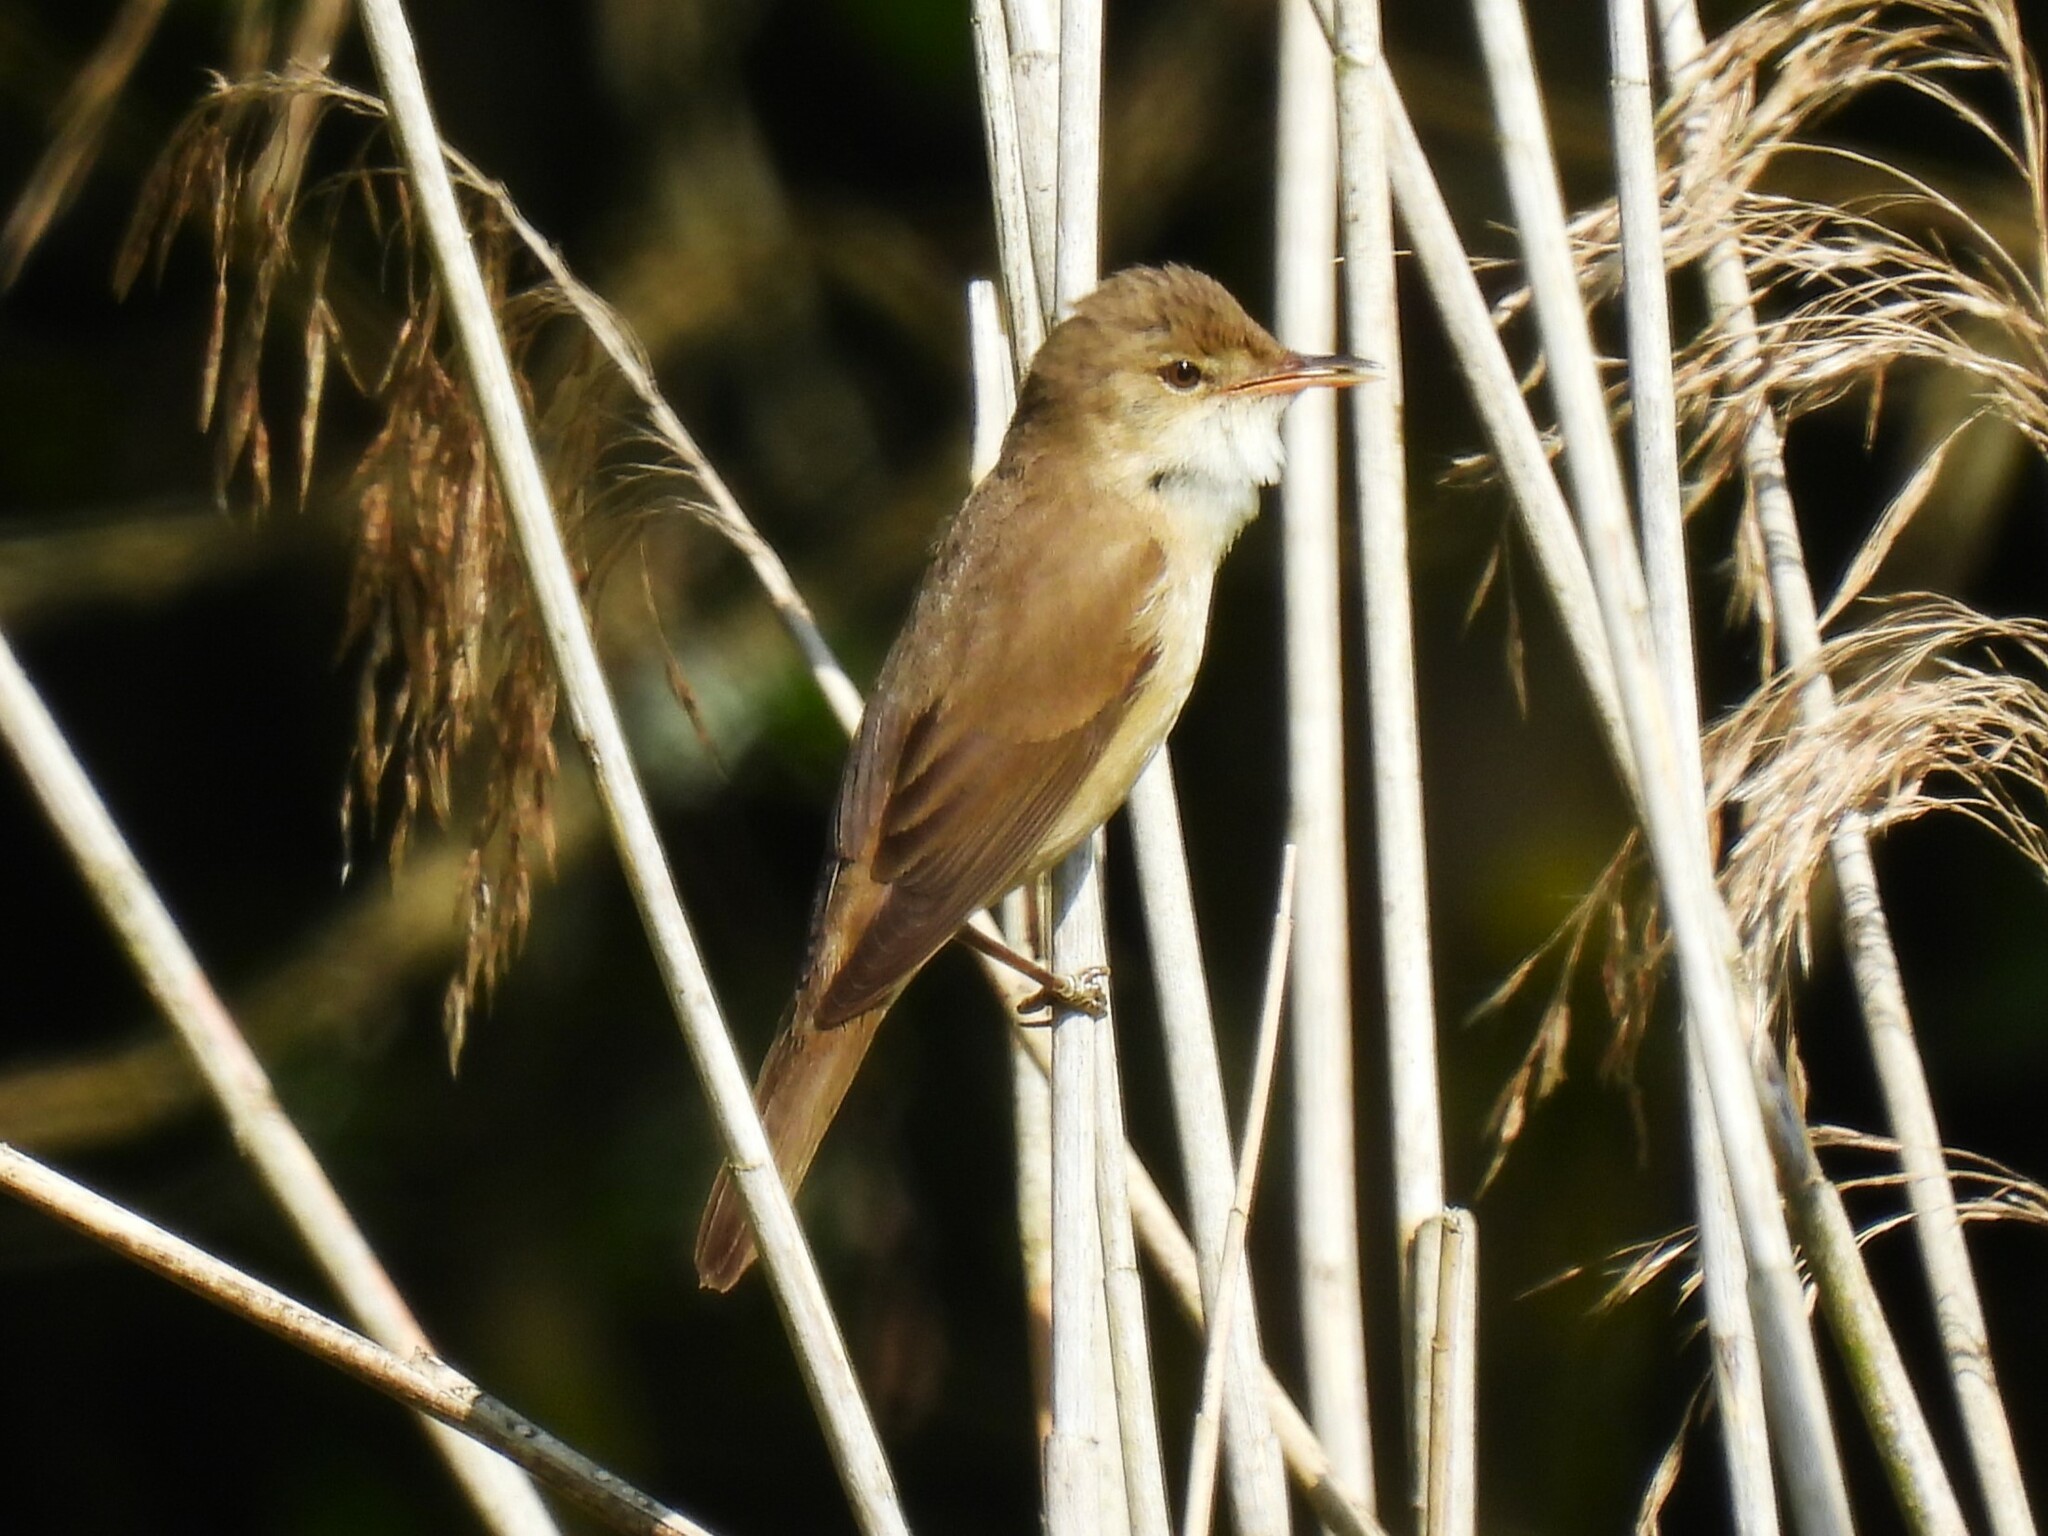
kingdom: Animalia
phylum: Chordata
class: Aves
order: Passeriformes
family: Acrocephalidae
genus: Acrocephalus
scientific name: Acrocephalus scirpaceus
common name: Eurasian reed warbler
